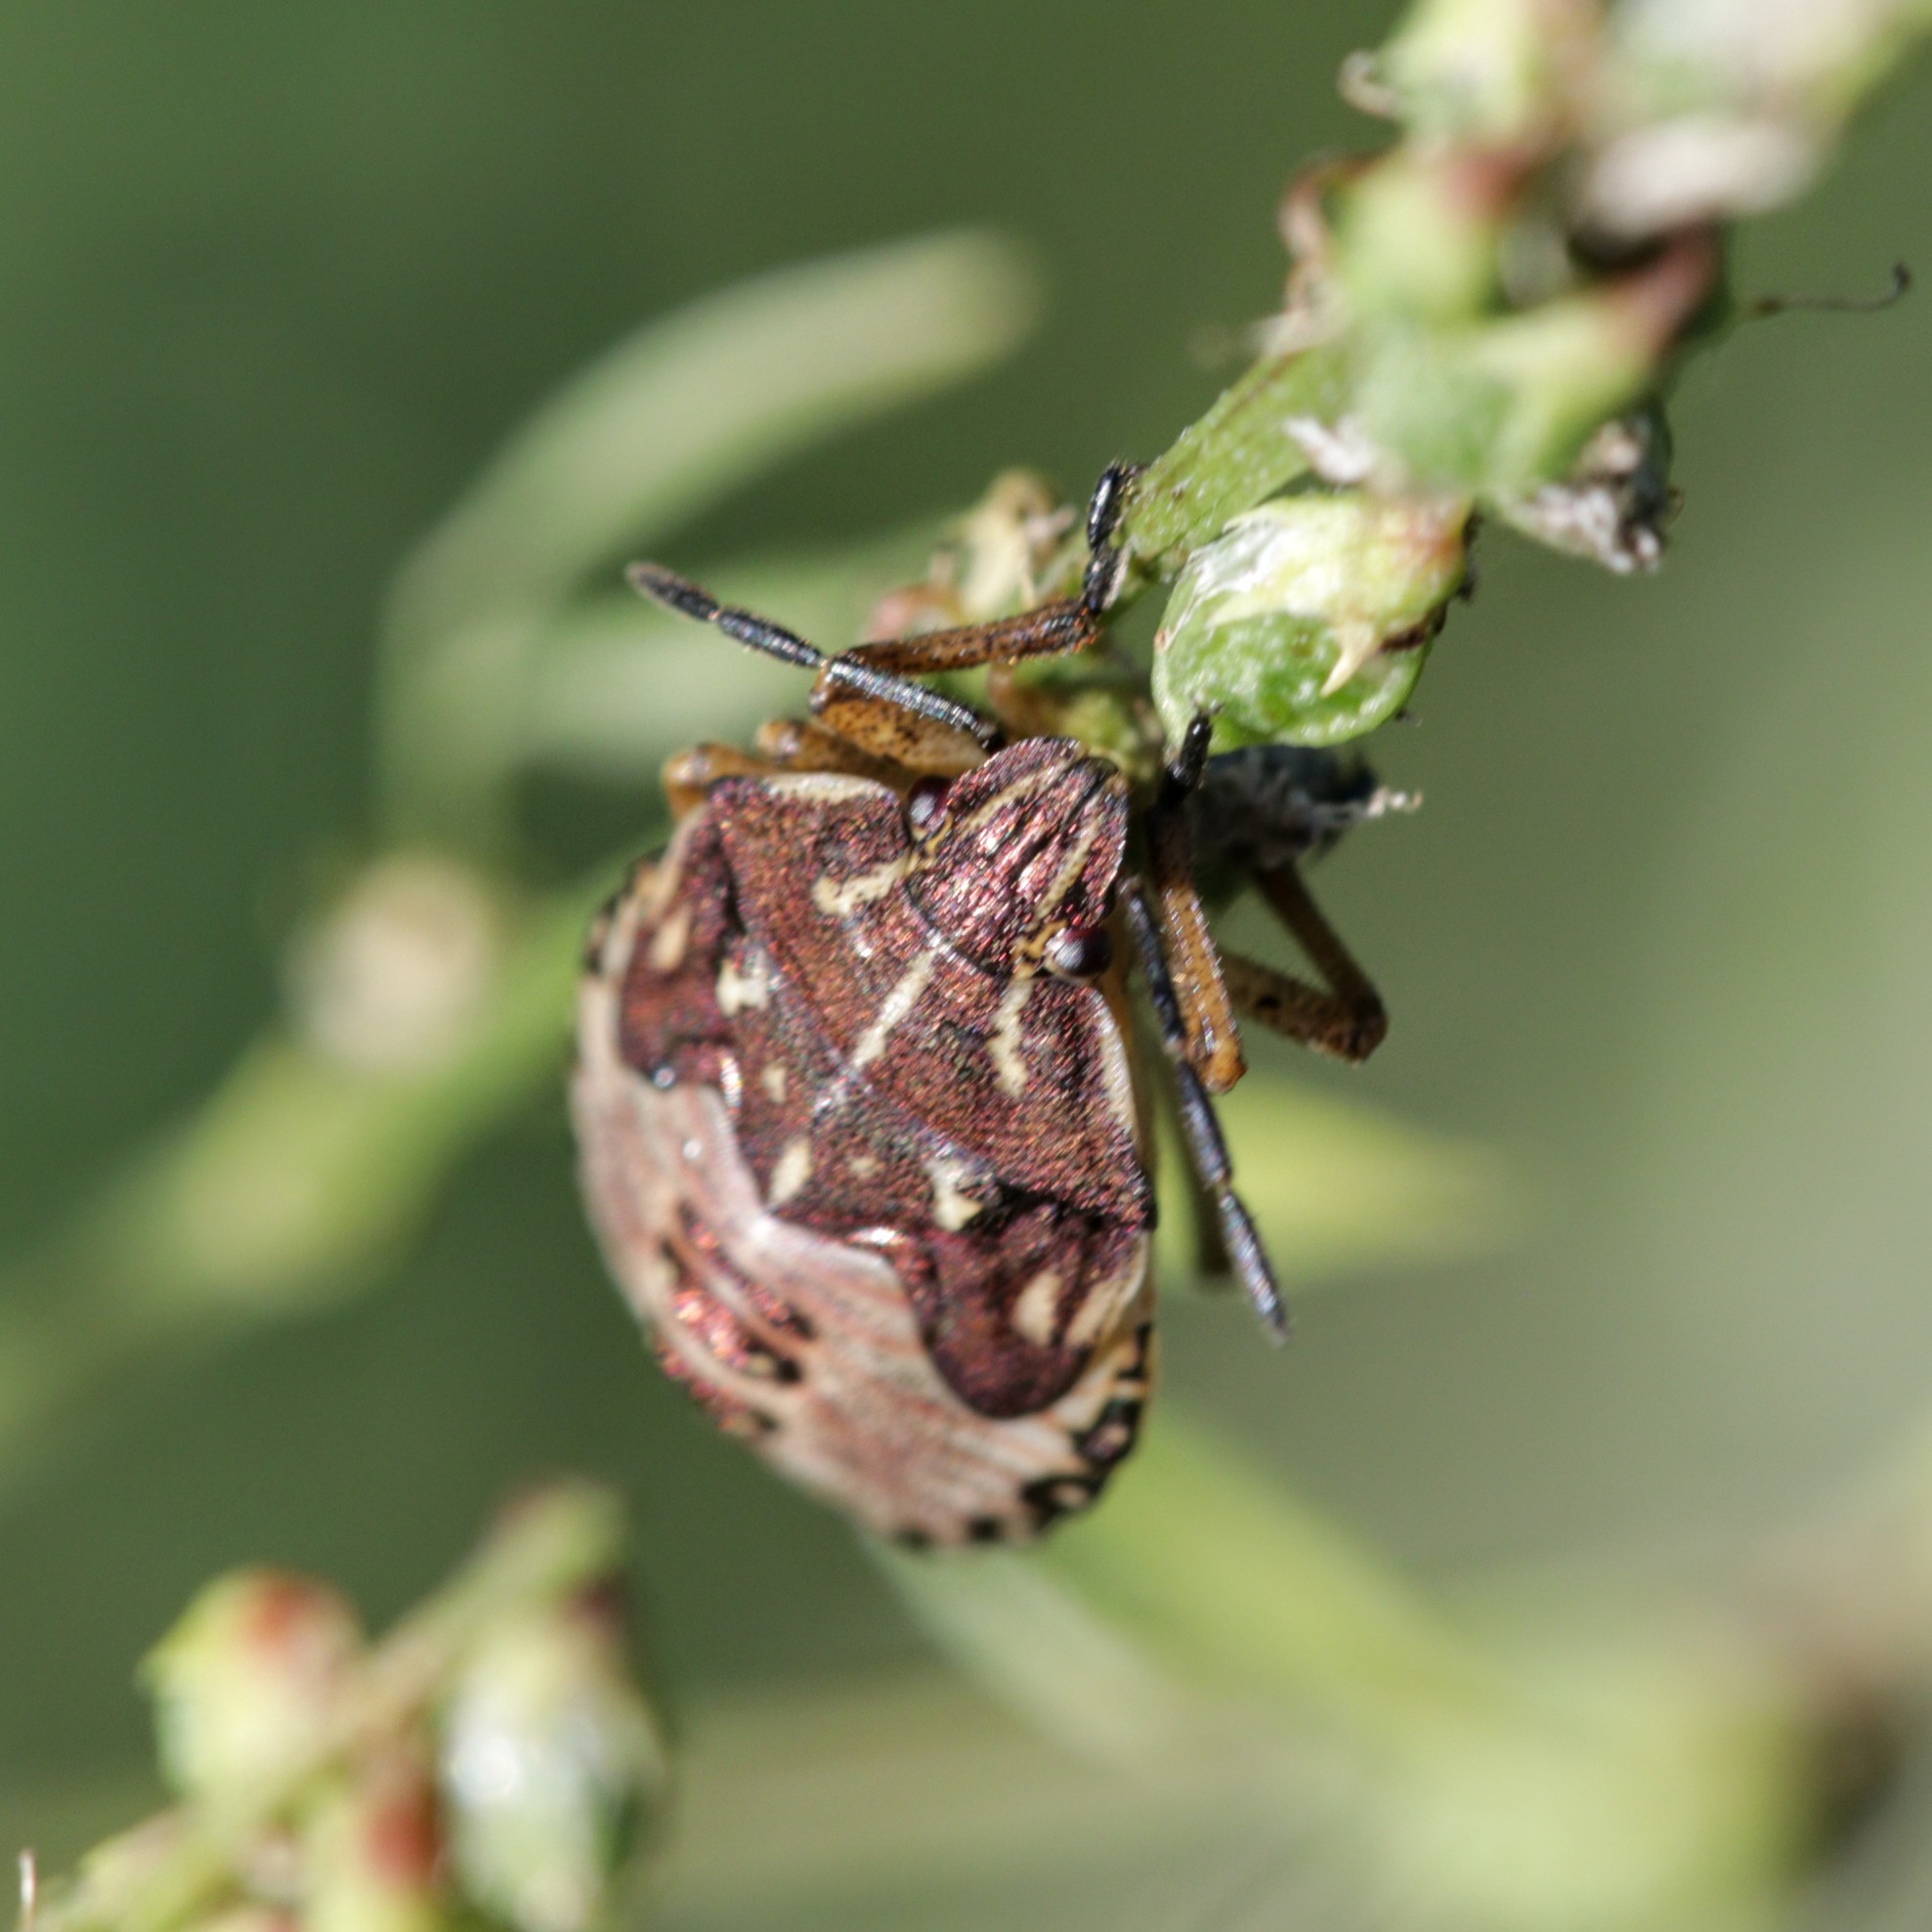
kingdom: Animalia
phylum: Arthropoda
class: Insecta
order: Hemiptera
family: Pentatomidae
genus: Carpocoris
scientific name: Carpocoris purpureipennis
